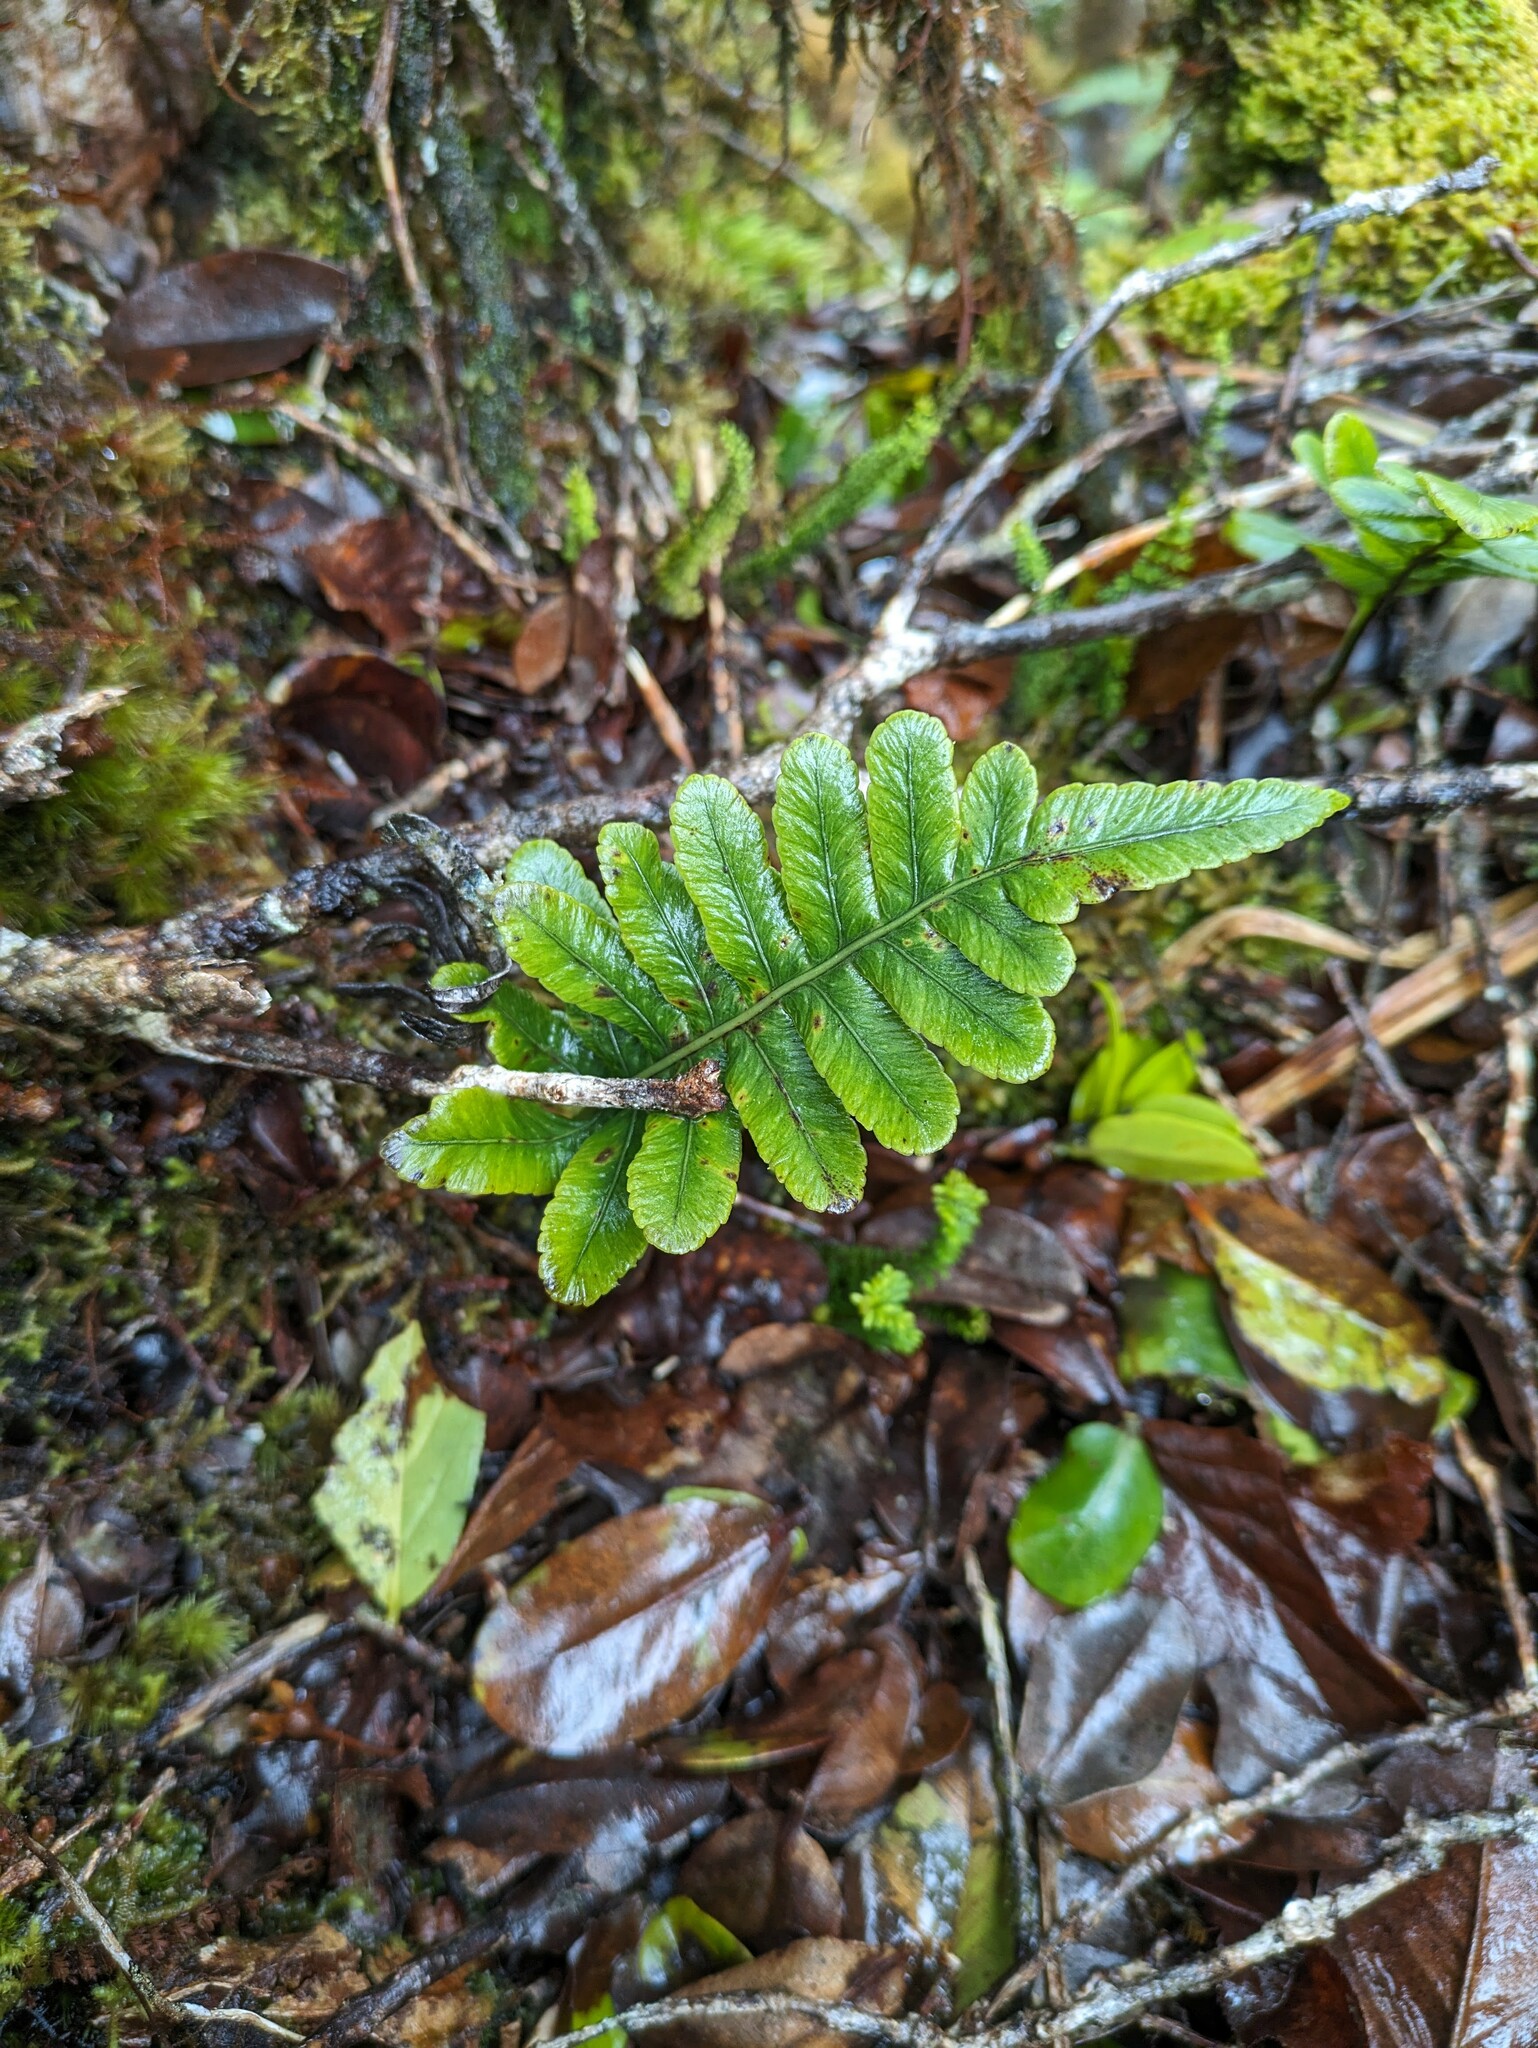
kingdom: Plantae
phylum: Tracheophyta
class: Polypodiopsida
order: Polypodiales
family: Polypodiaceae
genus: Polypodium
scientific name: Polypodium pellucidum
